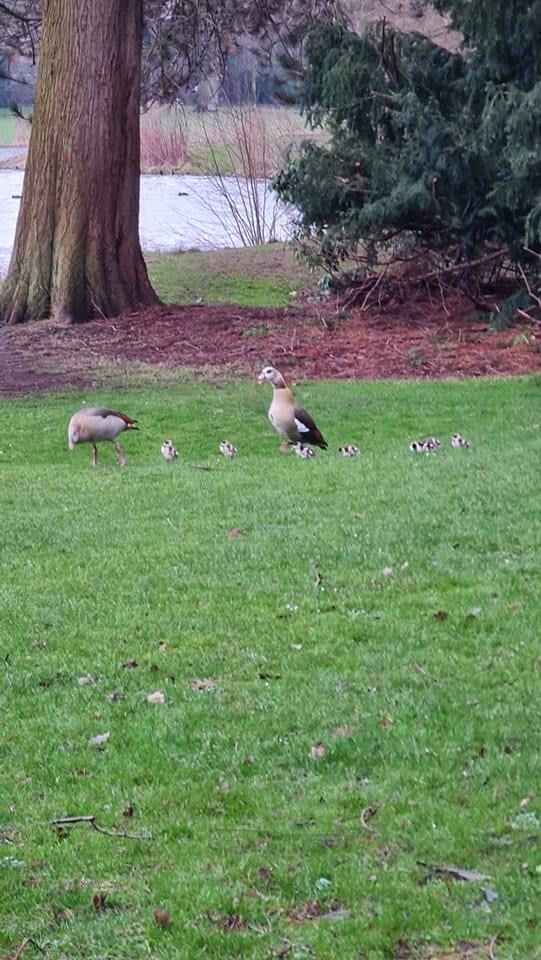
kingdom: Animalia
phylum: Chordata
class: Aves
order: Anseriformes
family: Anatidae
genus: Alopochen
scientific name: Alopochen aegyptiaca
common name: Egyptian goose
